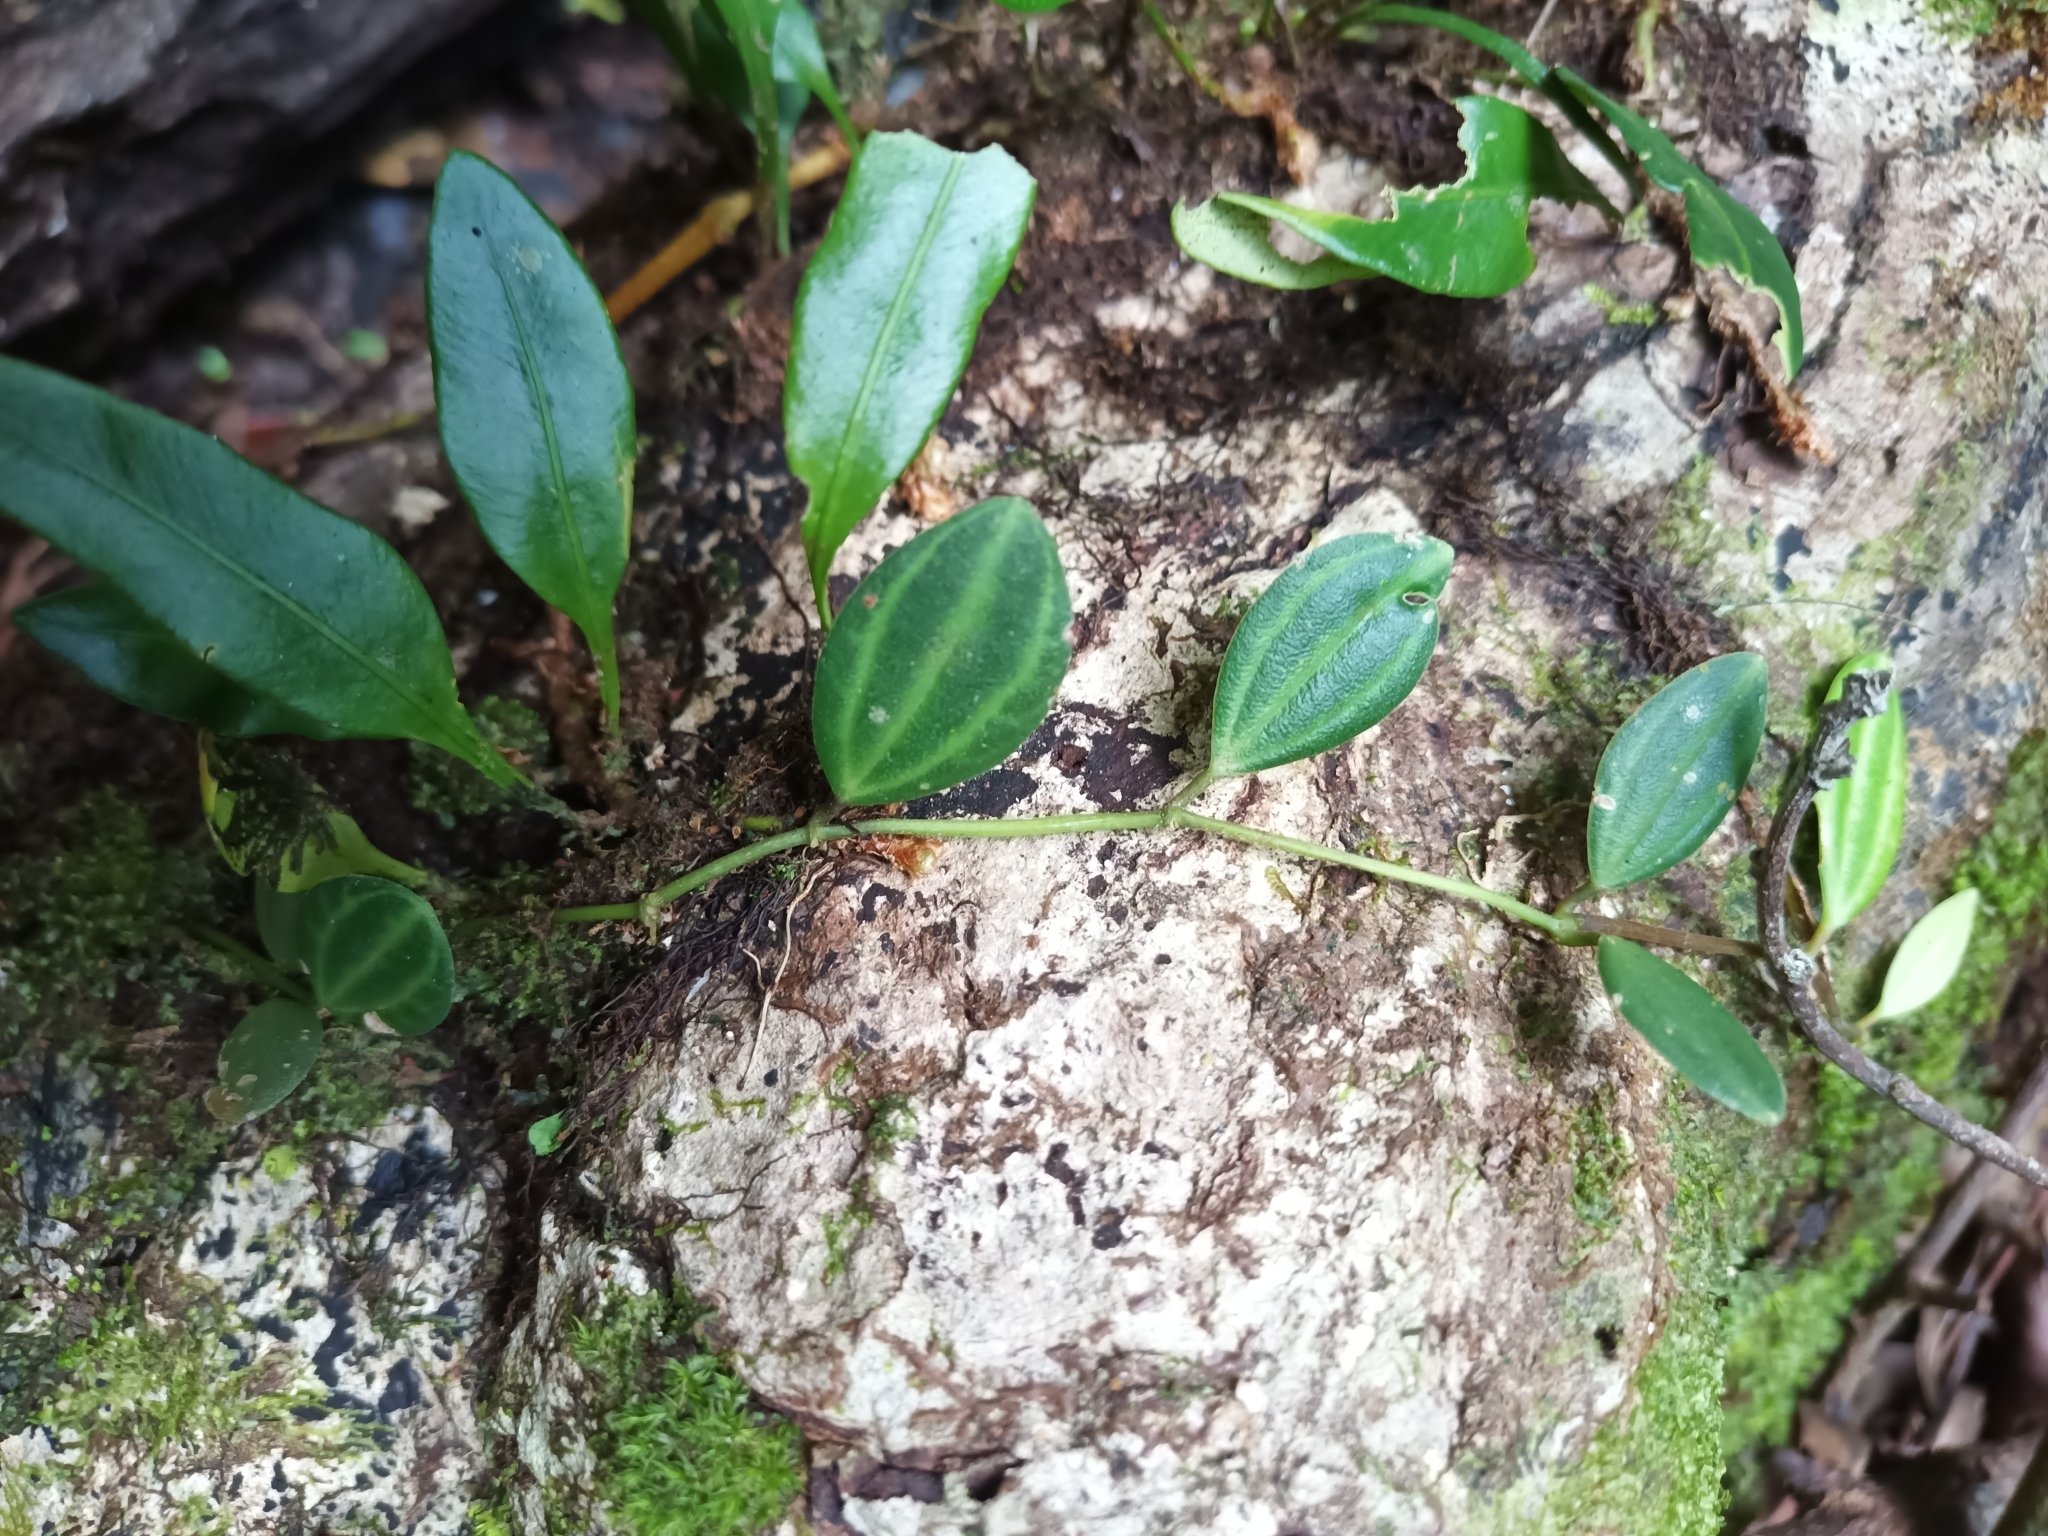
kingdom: Plantae
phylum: Tracheophyta
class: Magnoliopsida
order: Piperales
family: Piperaceae
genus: Peperomia
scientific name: Peperomia quadrangularis
